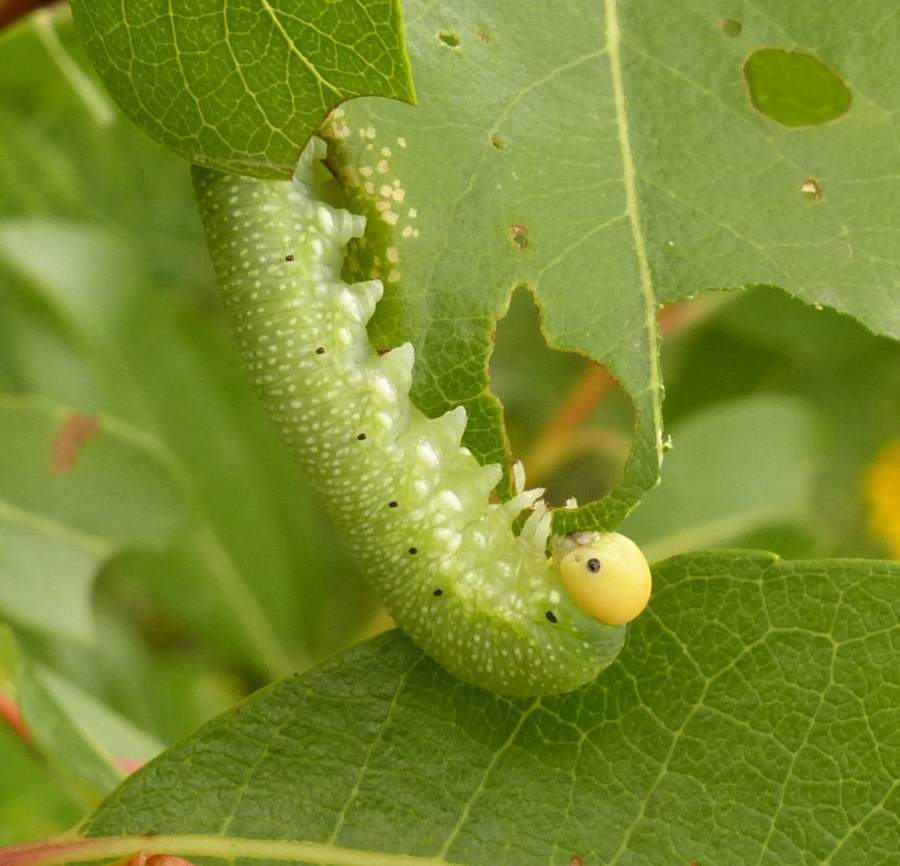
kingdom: Animalia
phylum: Arthropoda
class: Insecta
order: Hymenoptera
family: Cimbicidae
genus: Trichiosoma
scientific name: Trichiosoma triangulum
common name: Giant birch sawfly
